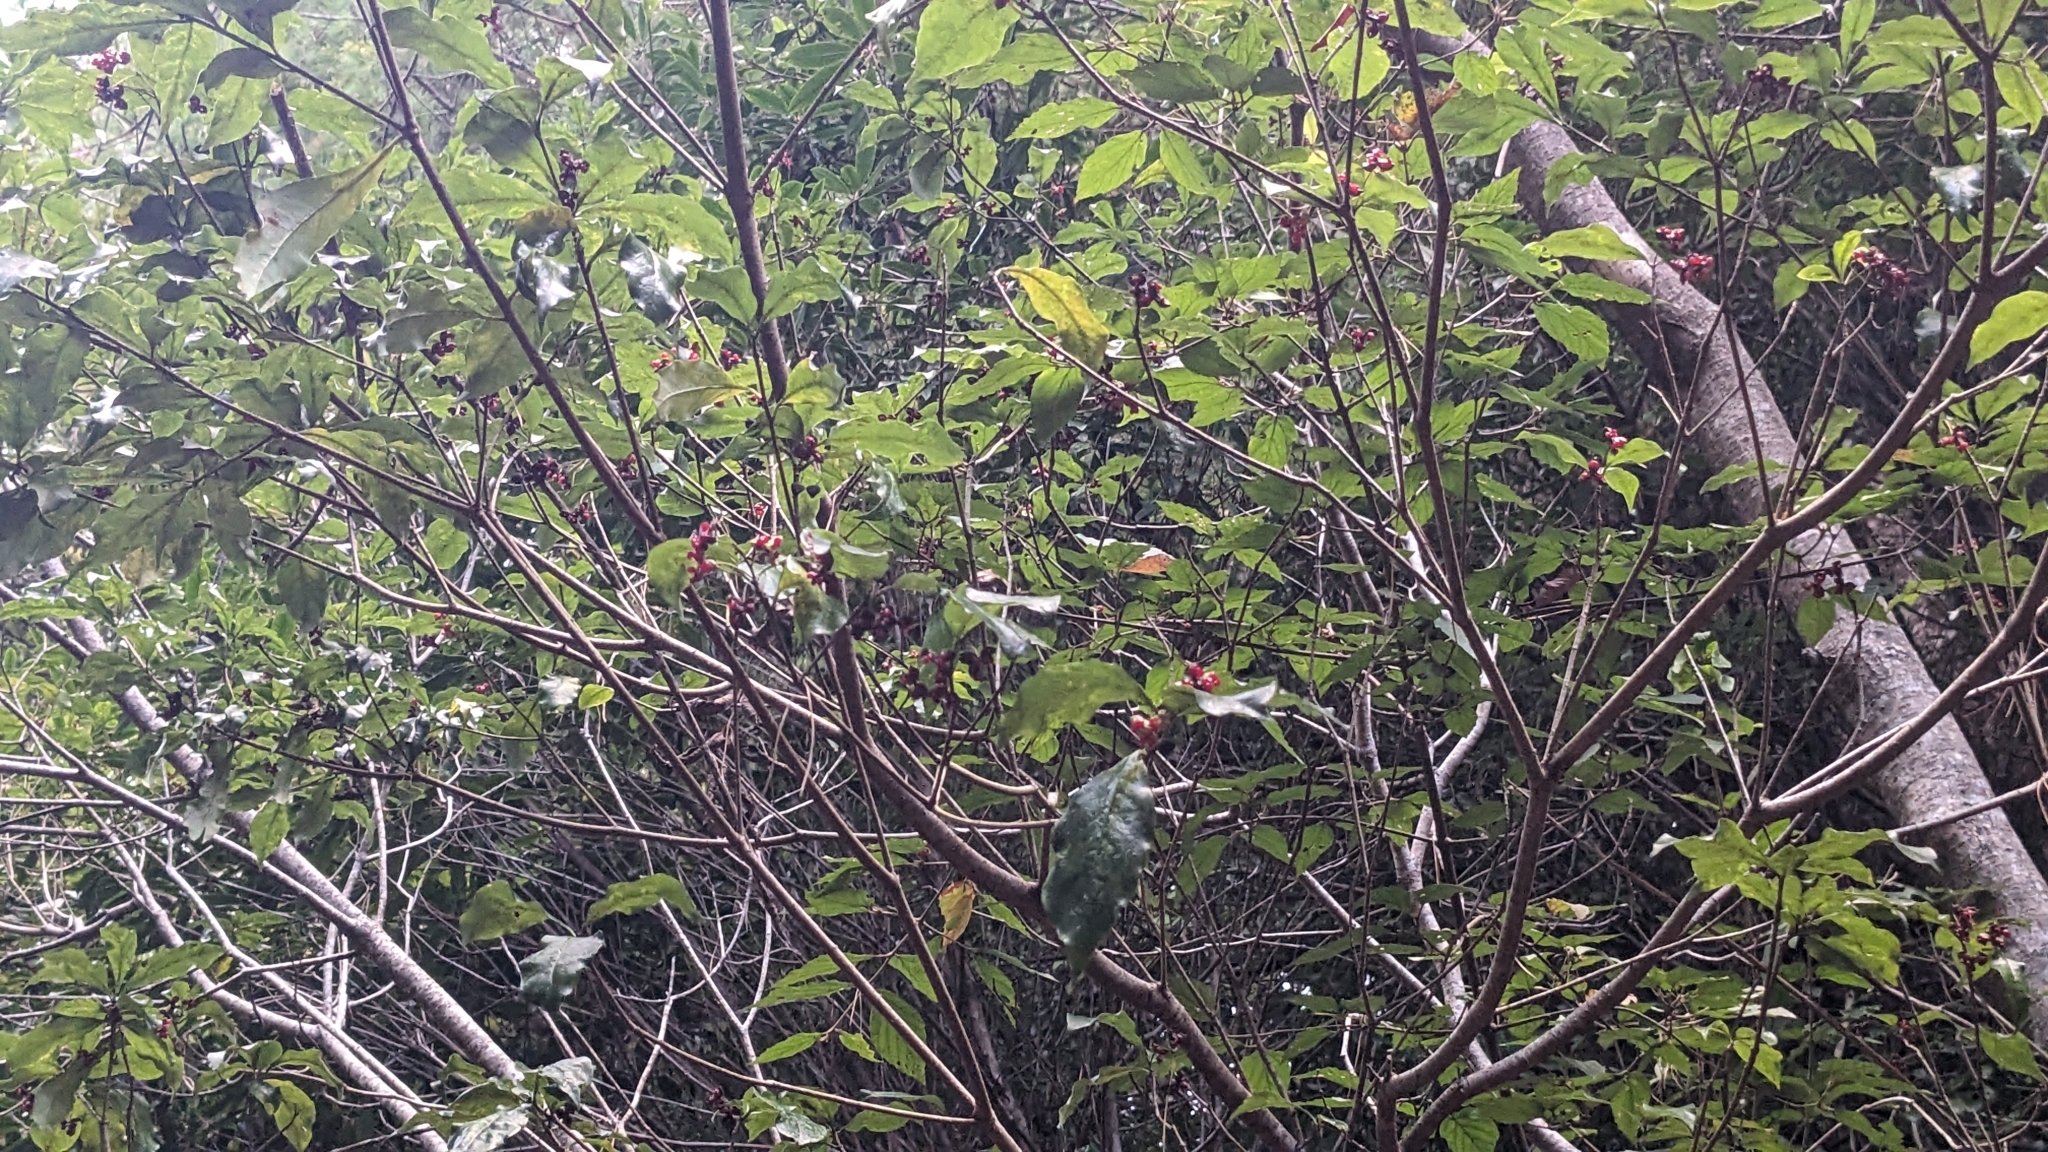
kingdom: Plantae
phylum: Tracheophyta
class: Magnoliopsida
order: Apiales
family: Pittosporaceae
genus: Pittosporum
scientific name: Pittosporum illicioides
